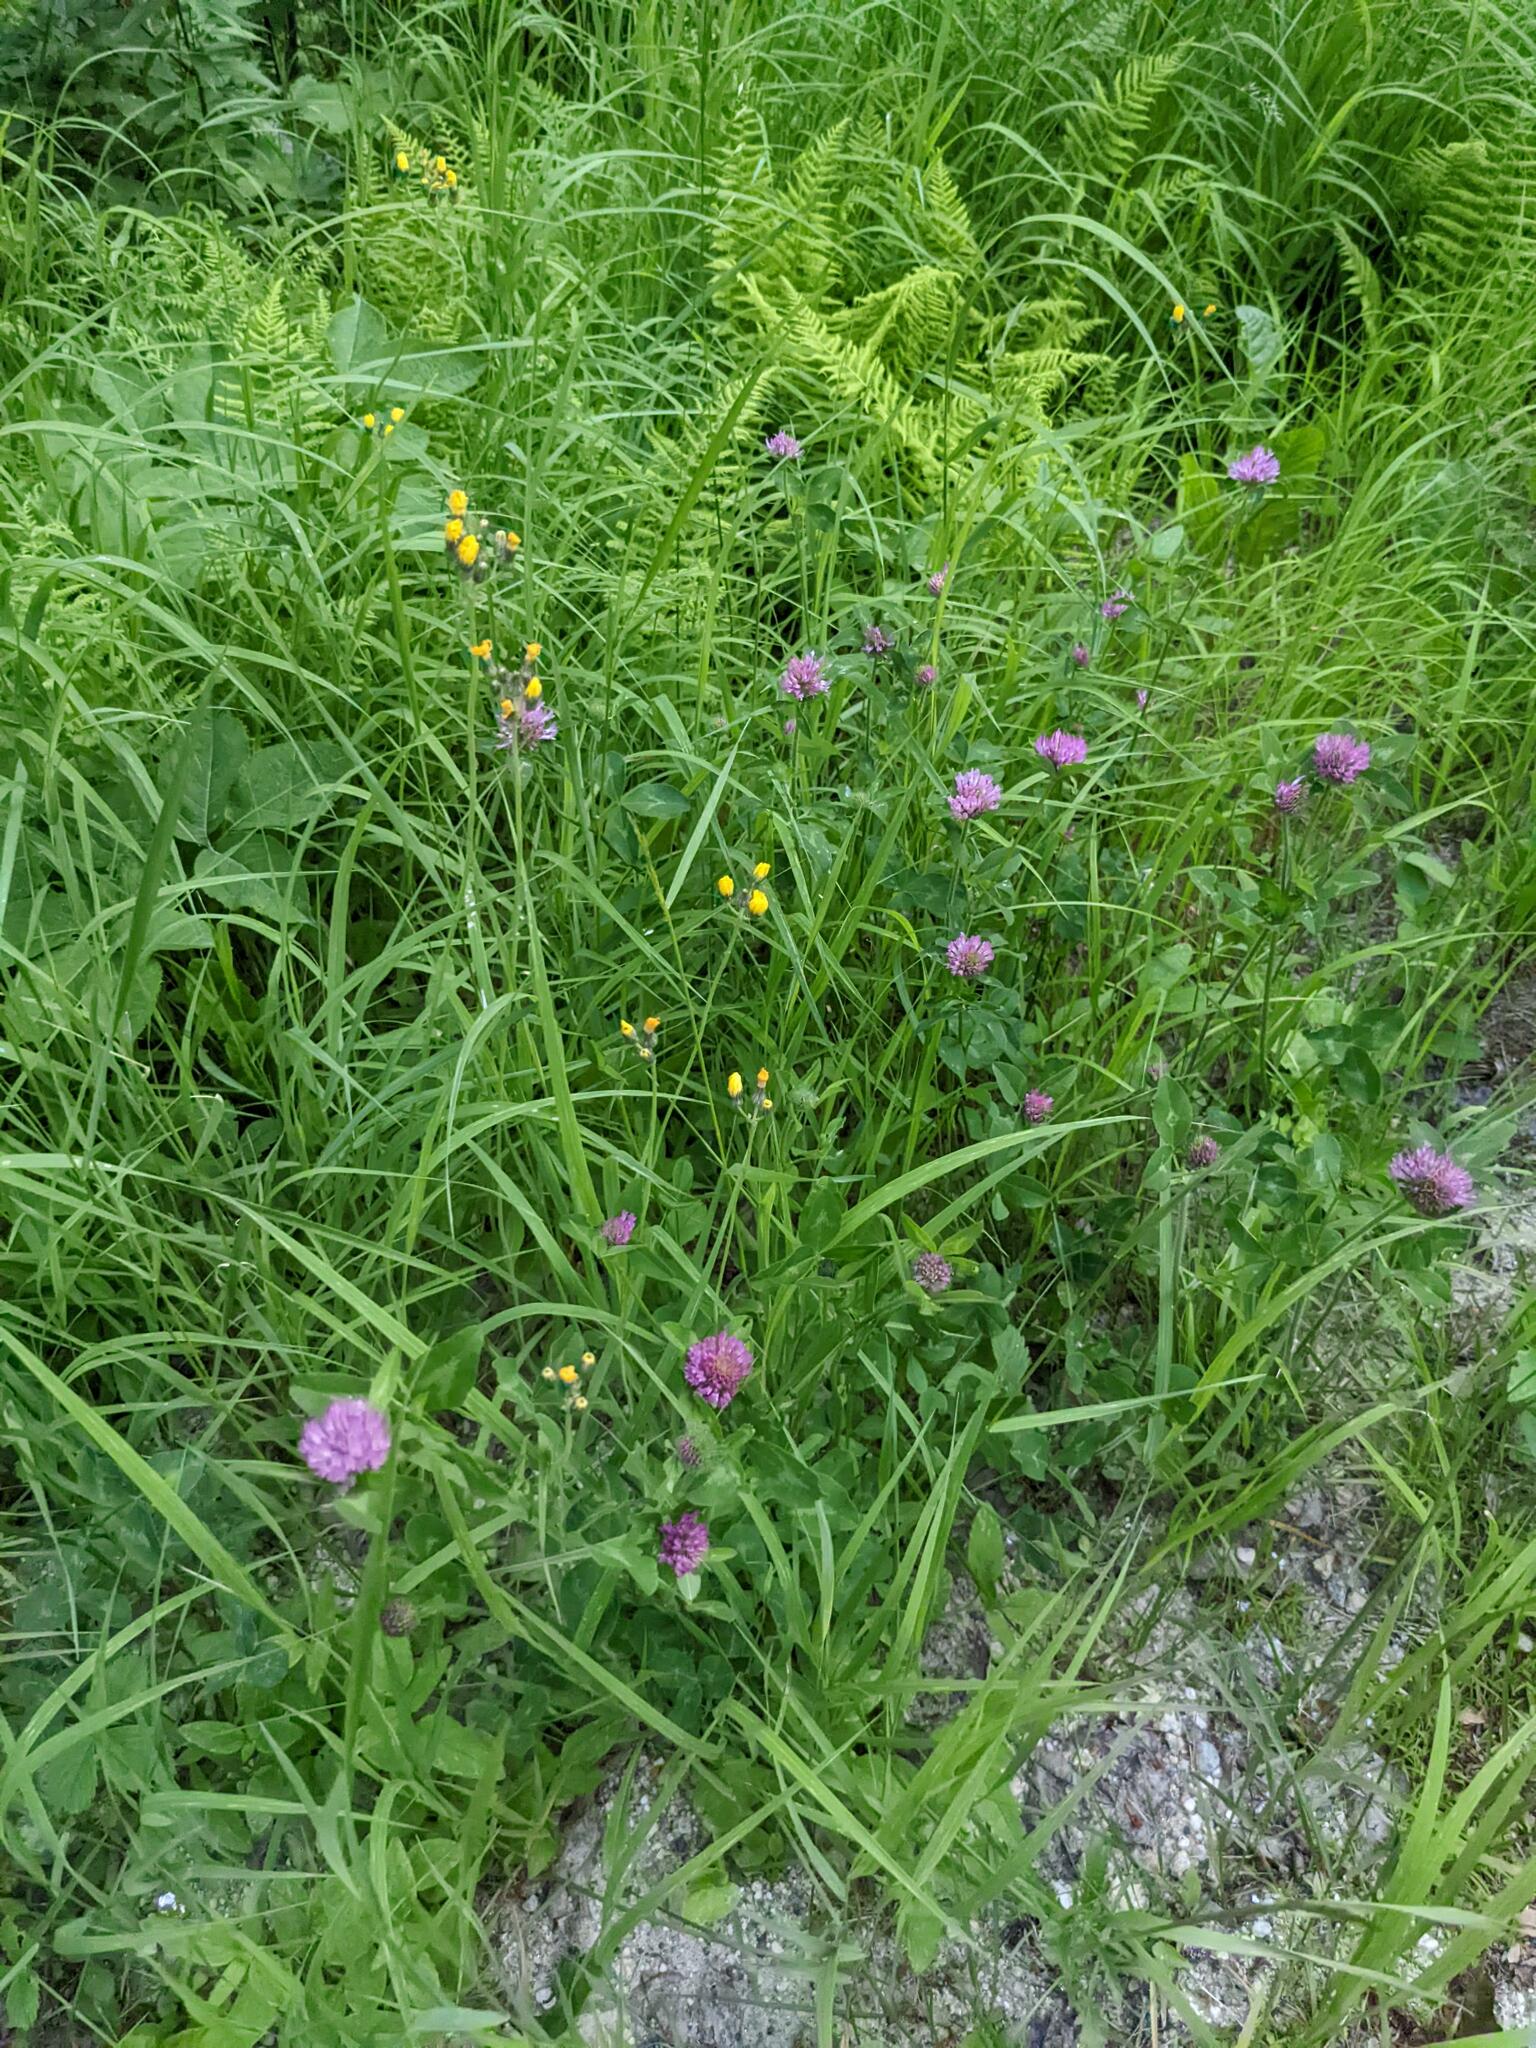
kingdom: Plantae
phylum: Tracheophyta
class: Magnoliopsida
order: Fabales
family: Fabaceae
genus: Trifolium
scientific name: Trifolium pratense
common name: Red clover
